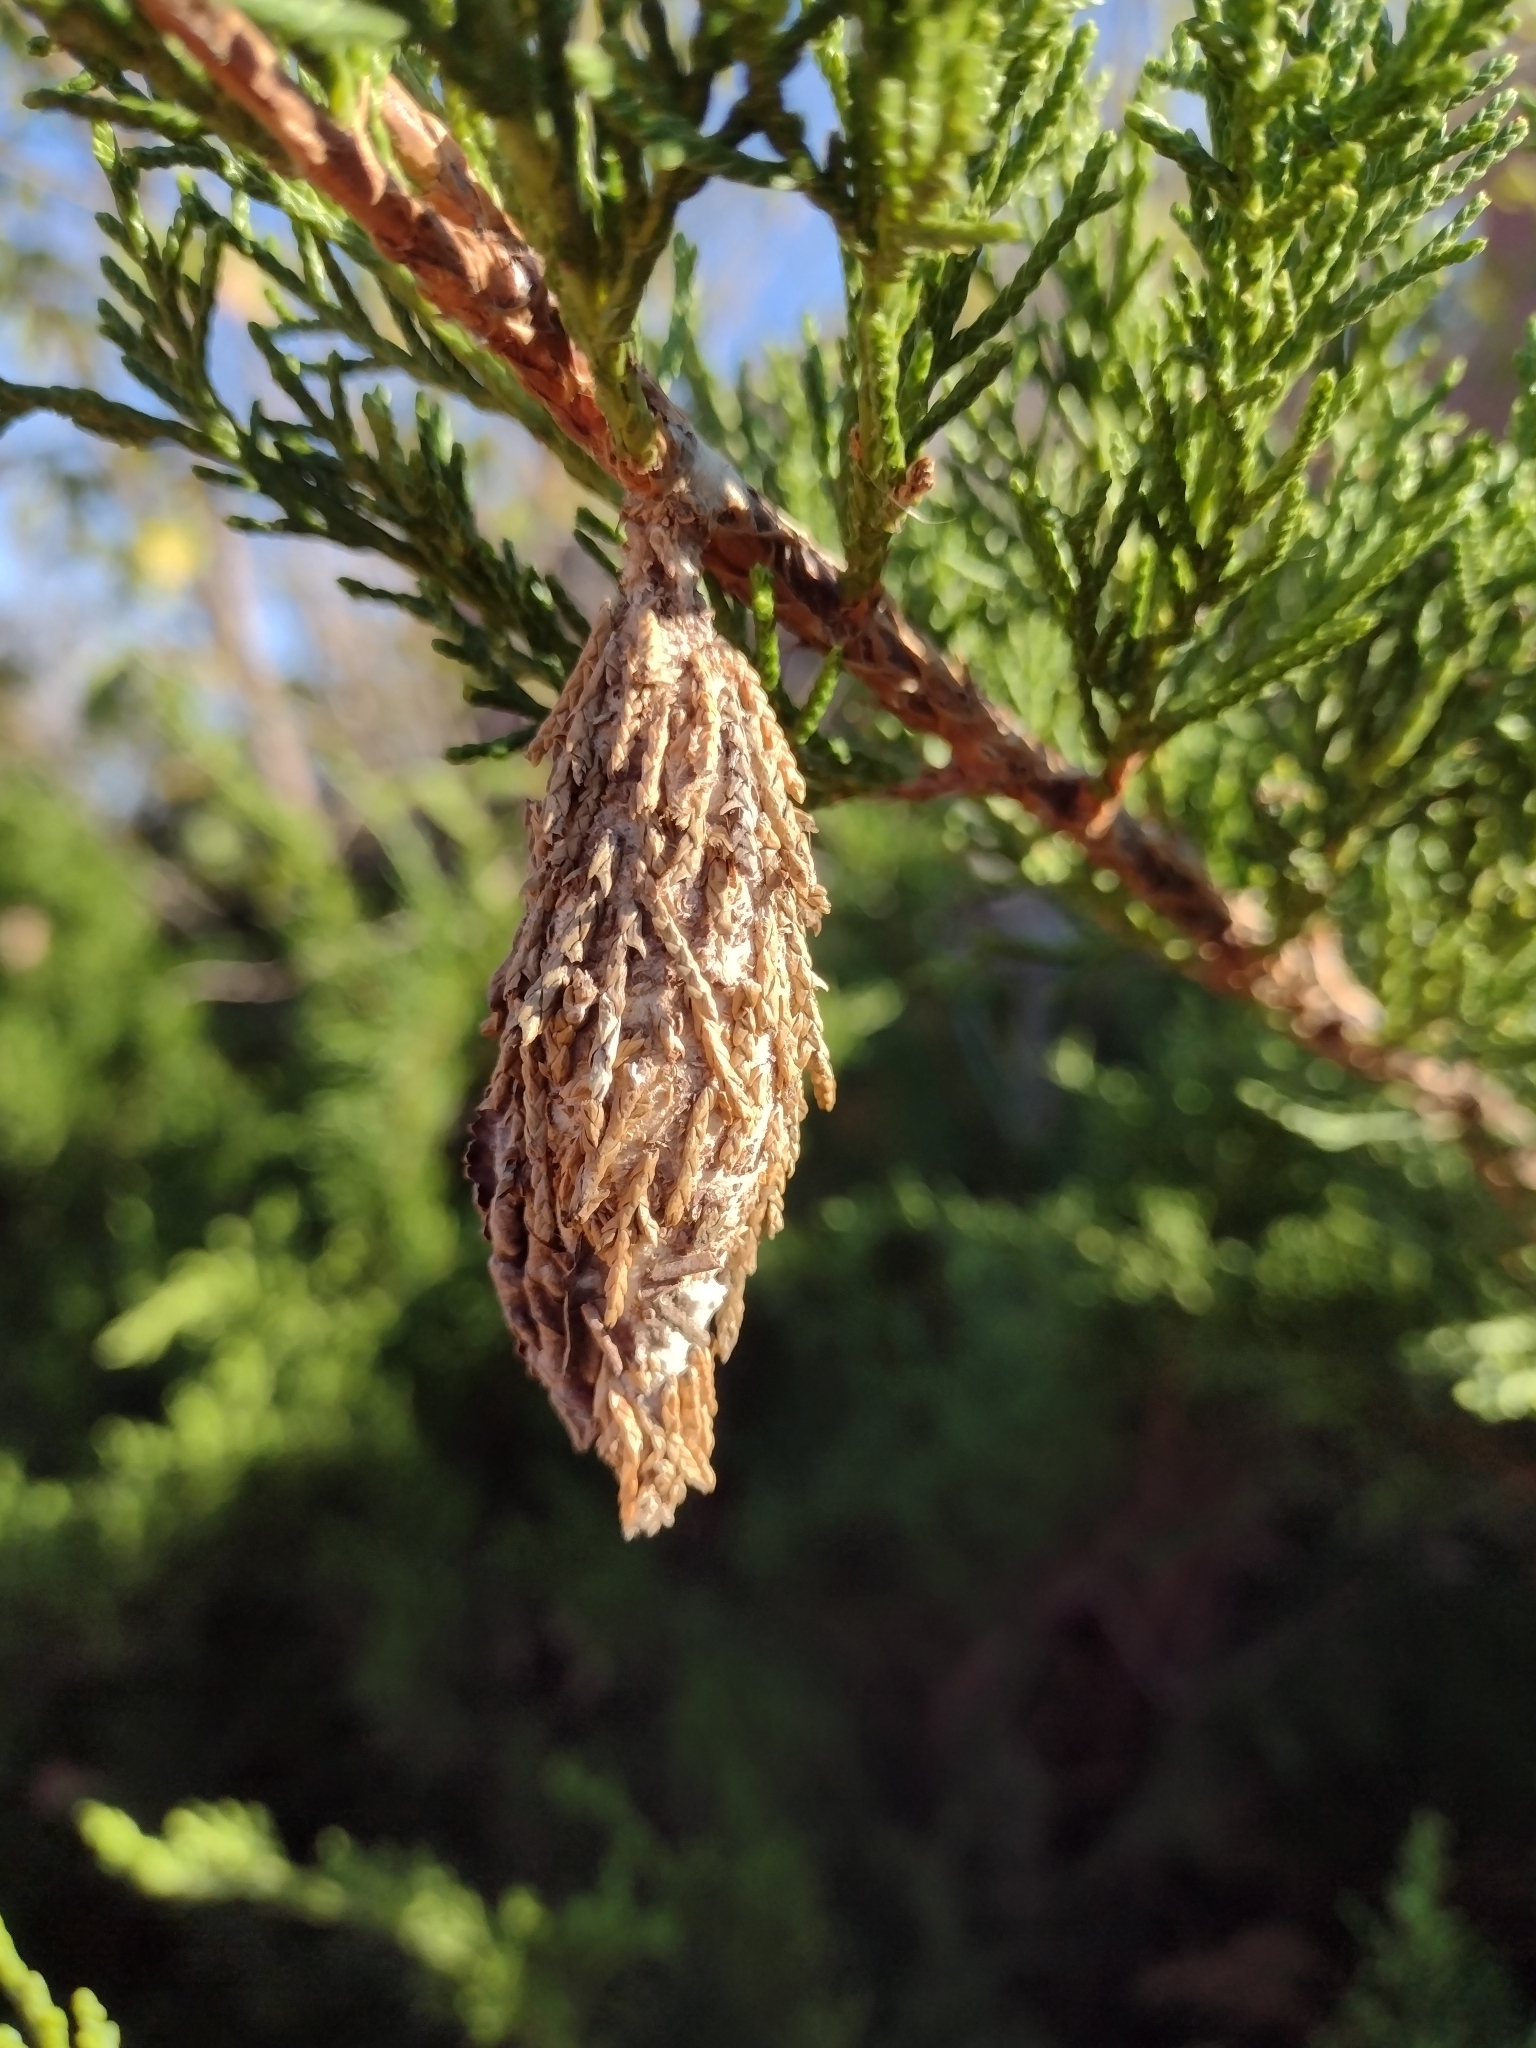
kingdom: Animalia
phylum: Arthropoda
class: Insecta
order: Lepidoptera
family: Psychidae
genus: Thyridopteryx
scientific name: Thyridopteryx ephemeraeformis
